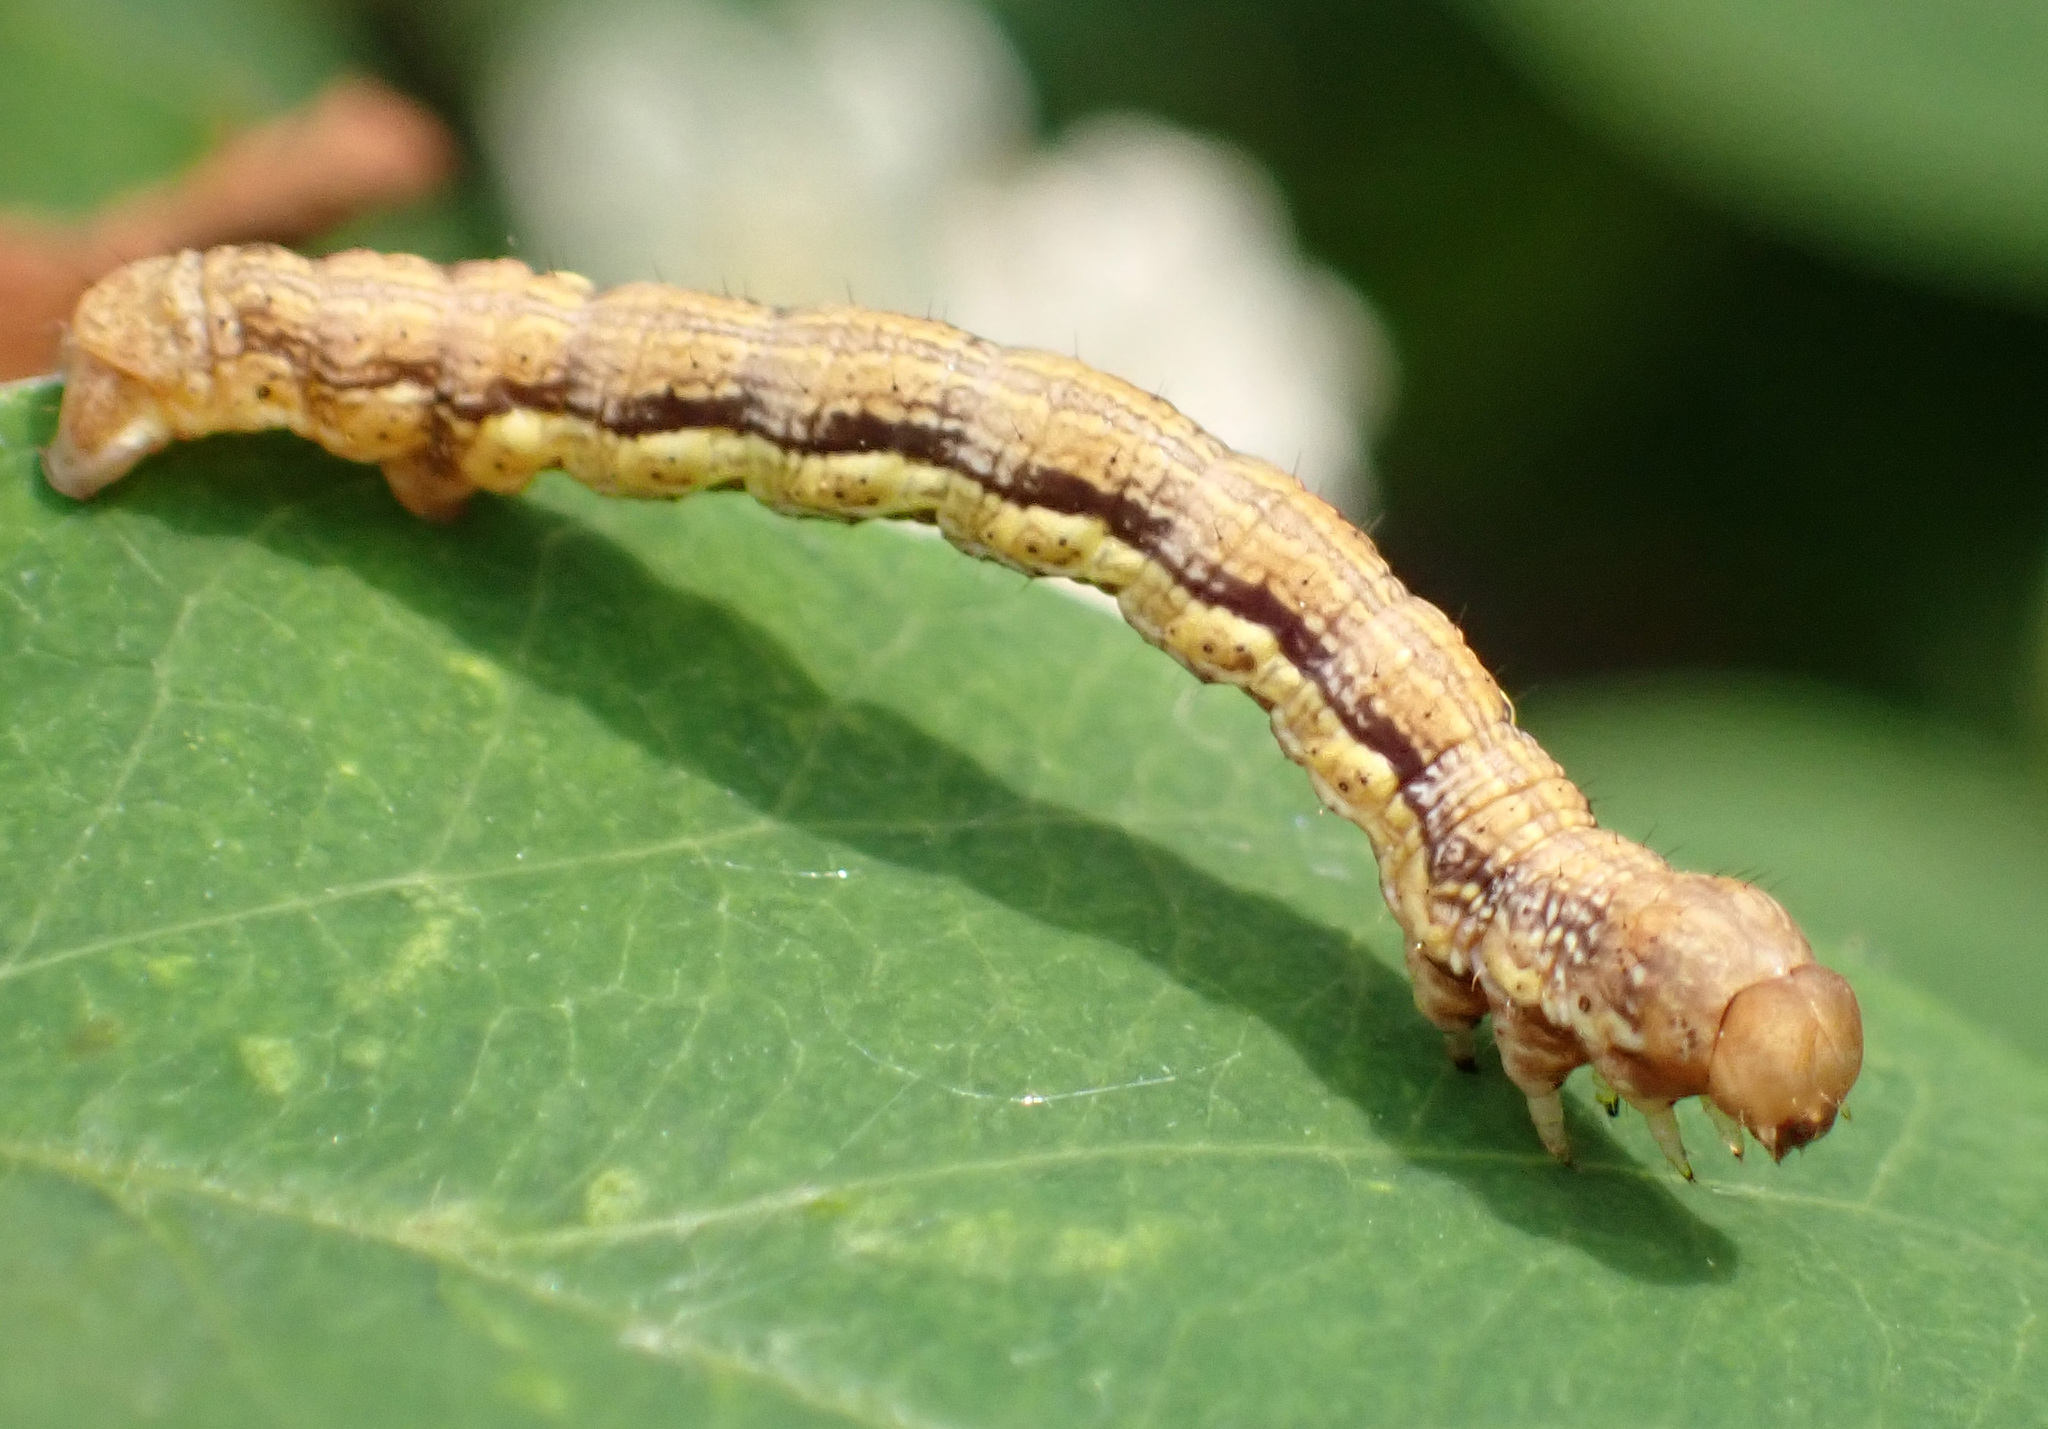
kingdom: Animalia
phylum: Arthropoda
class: Insecta
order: Lepidoptera
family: Geometridae
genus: Erannis
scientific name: Erannis defoliaria
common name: Mottled umber
